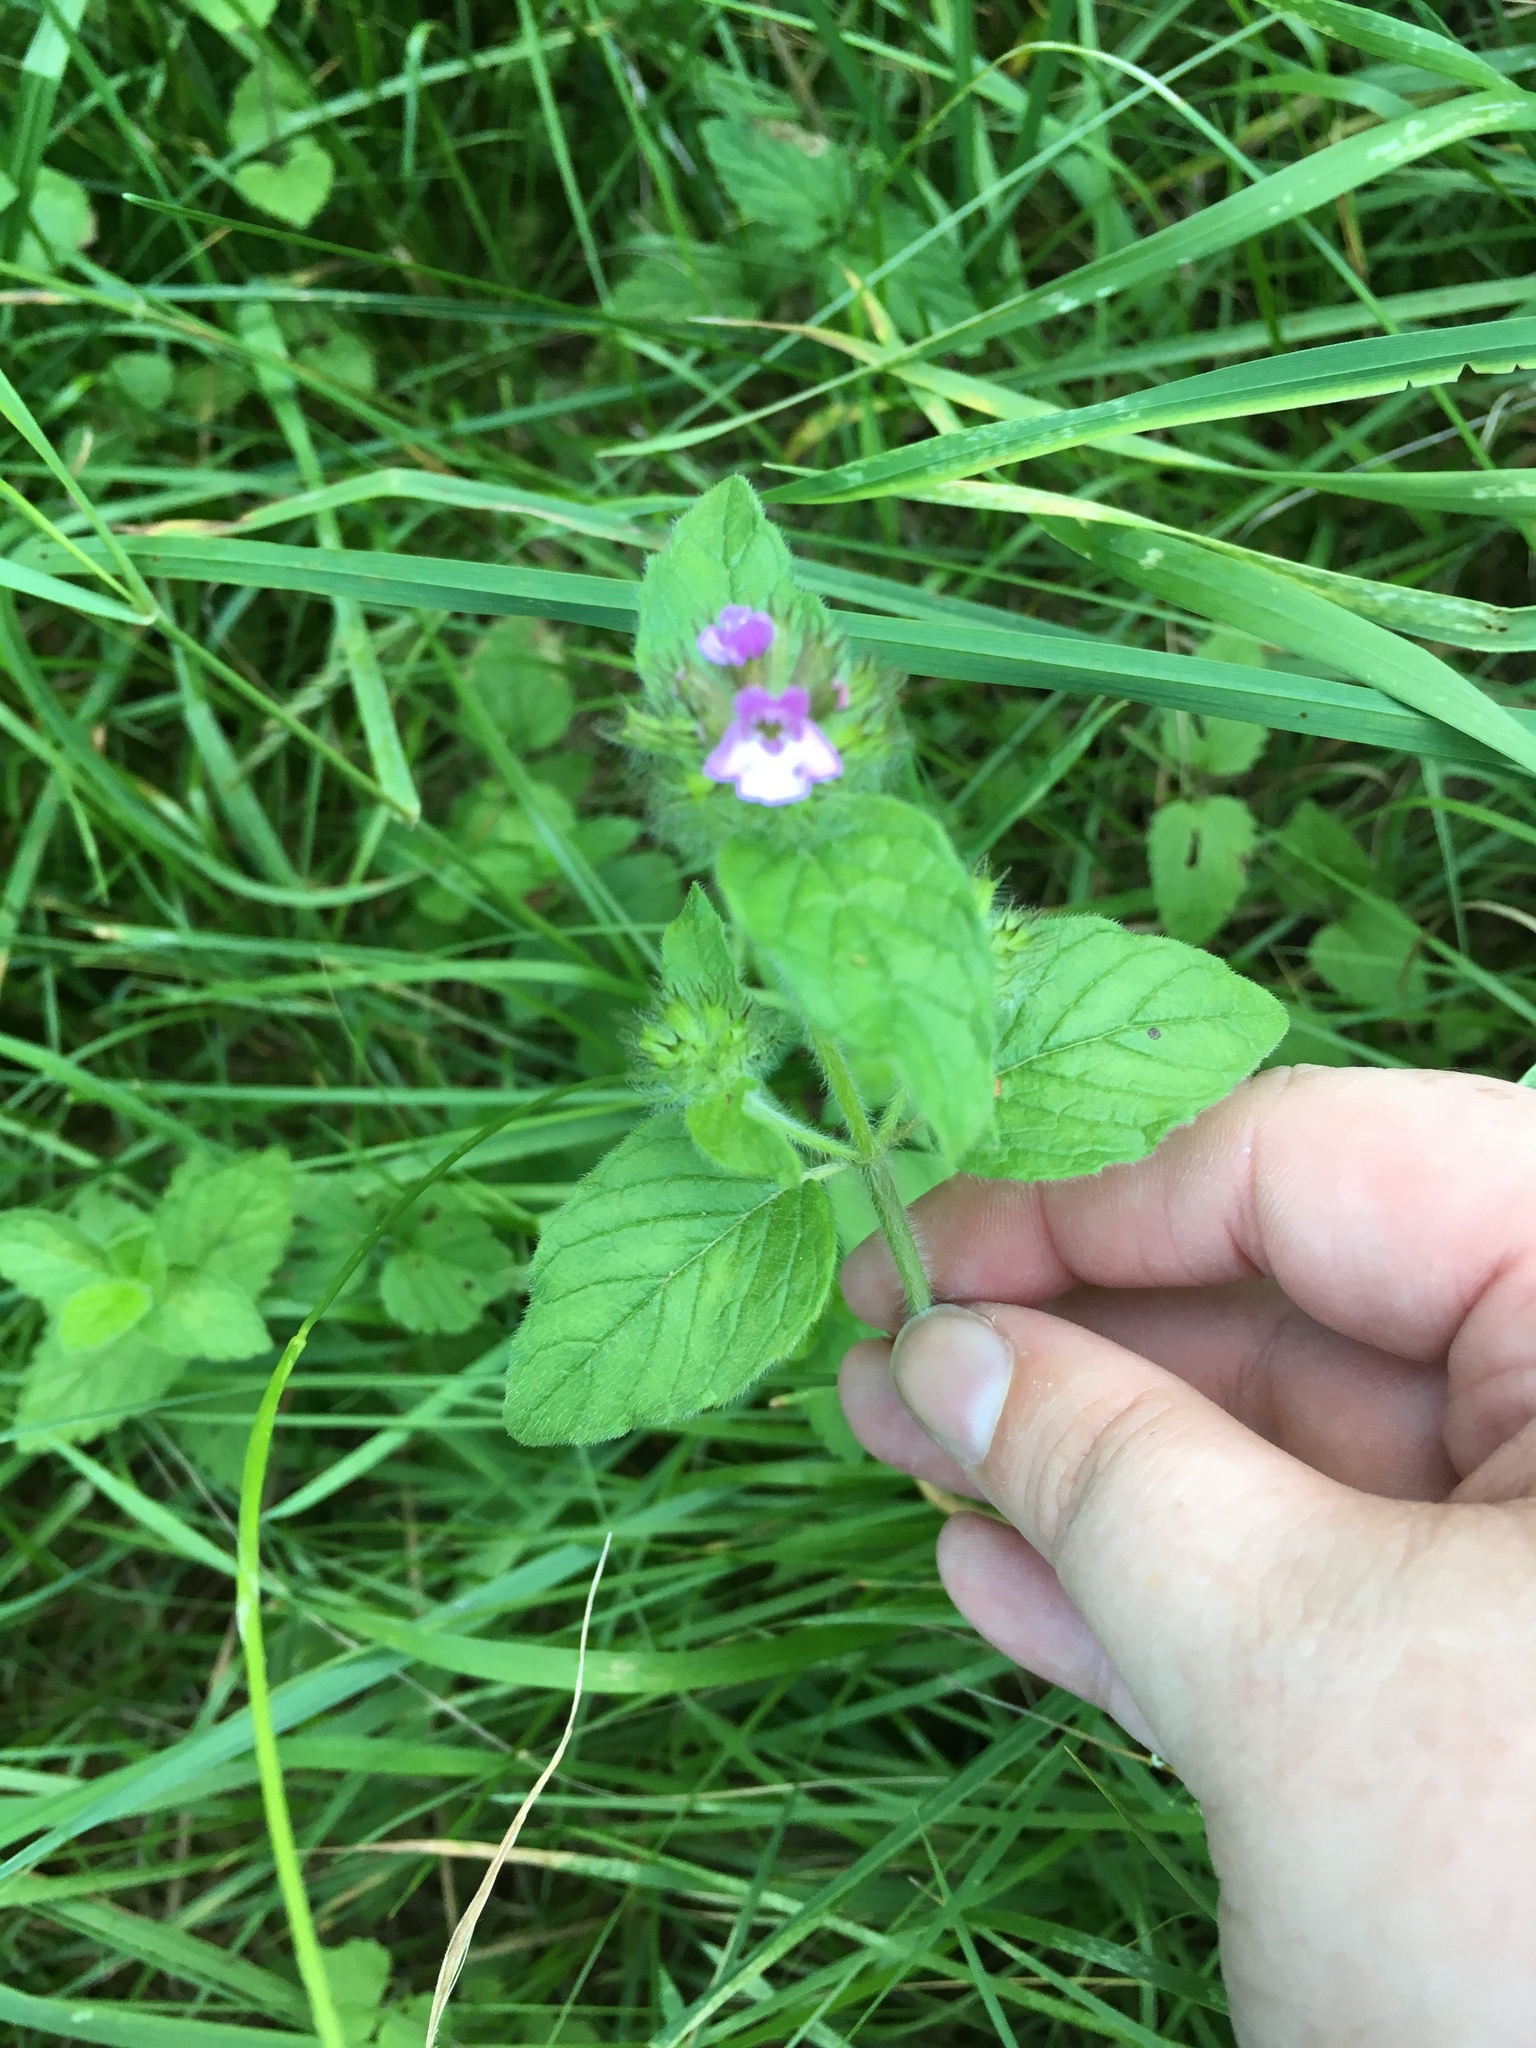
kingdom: Plantae
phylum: Tracheophyta
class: Magnoliopsida
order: Lamiales
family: Lamiaceae
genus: Clinopodium
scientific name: Clinopodium vulgare
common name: Wild basil
